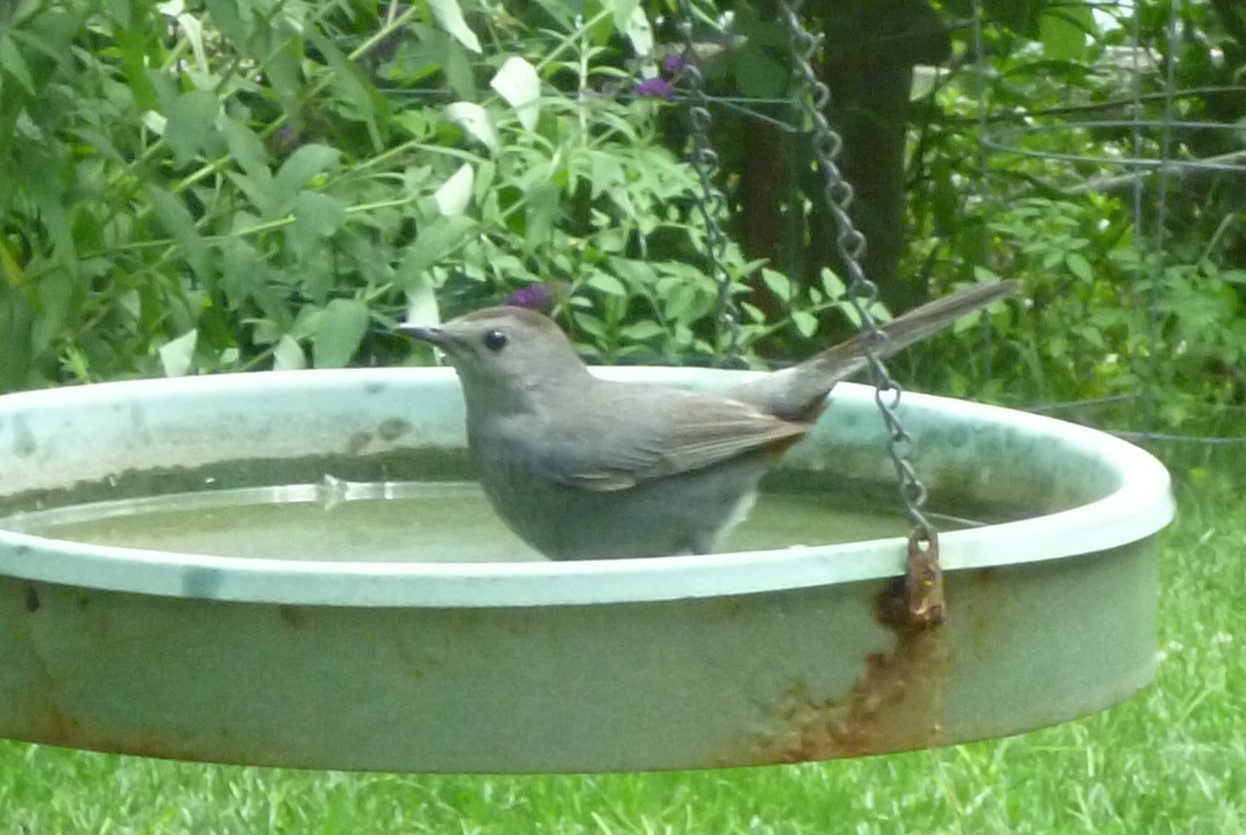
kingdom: Animalia
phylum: Chordata
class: Aves
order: Passeriformes
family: Mimidae
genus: Dumetella
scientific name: Dumetella carolinensis
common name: Gray catbird
